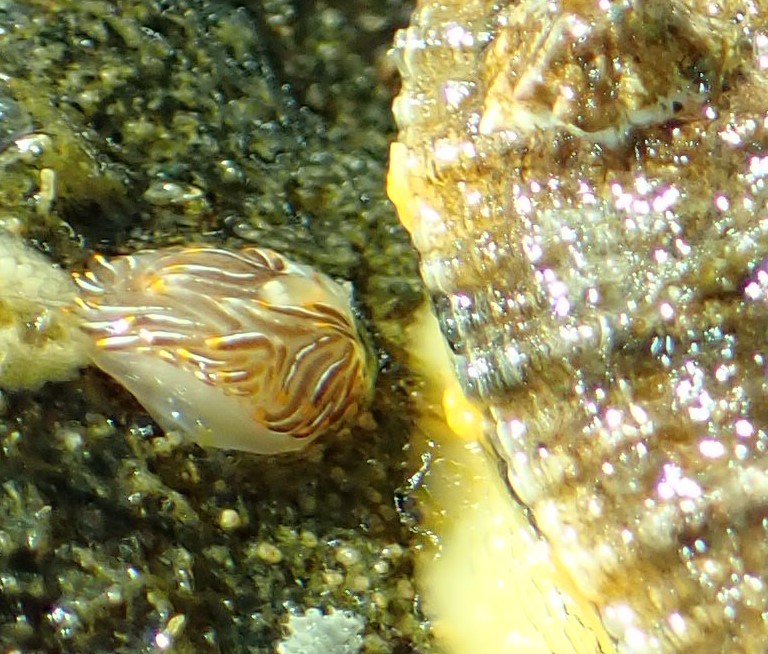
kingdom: Animalia
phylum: Mollusca
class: Gastropoda
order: Lepetellida
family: Fissurellidae
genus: Diodora
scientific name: Diodora aspera
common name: Rough keyhole limpet
